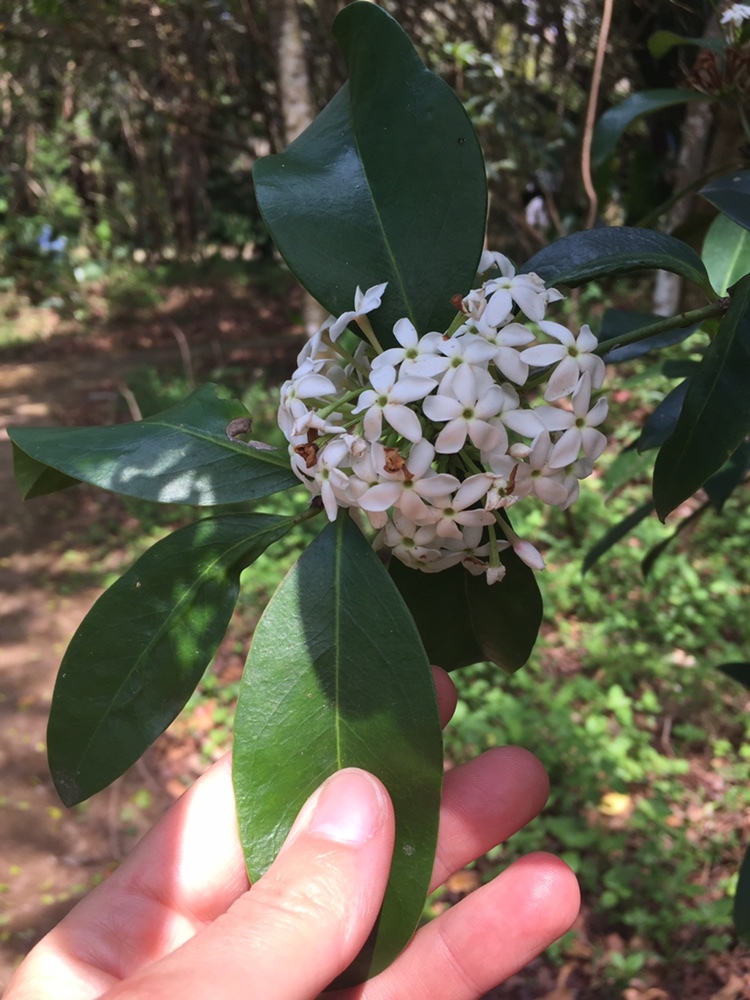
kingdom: Plantae
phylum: Tracheophyta
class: Magnoliopsida
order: Gentianales
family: Apocynaceae
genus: Acokanthera
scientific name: Acokanthera oppositifolia
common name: Bushman's-poison
